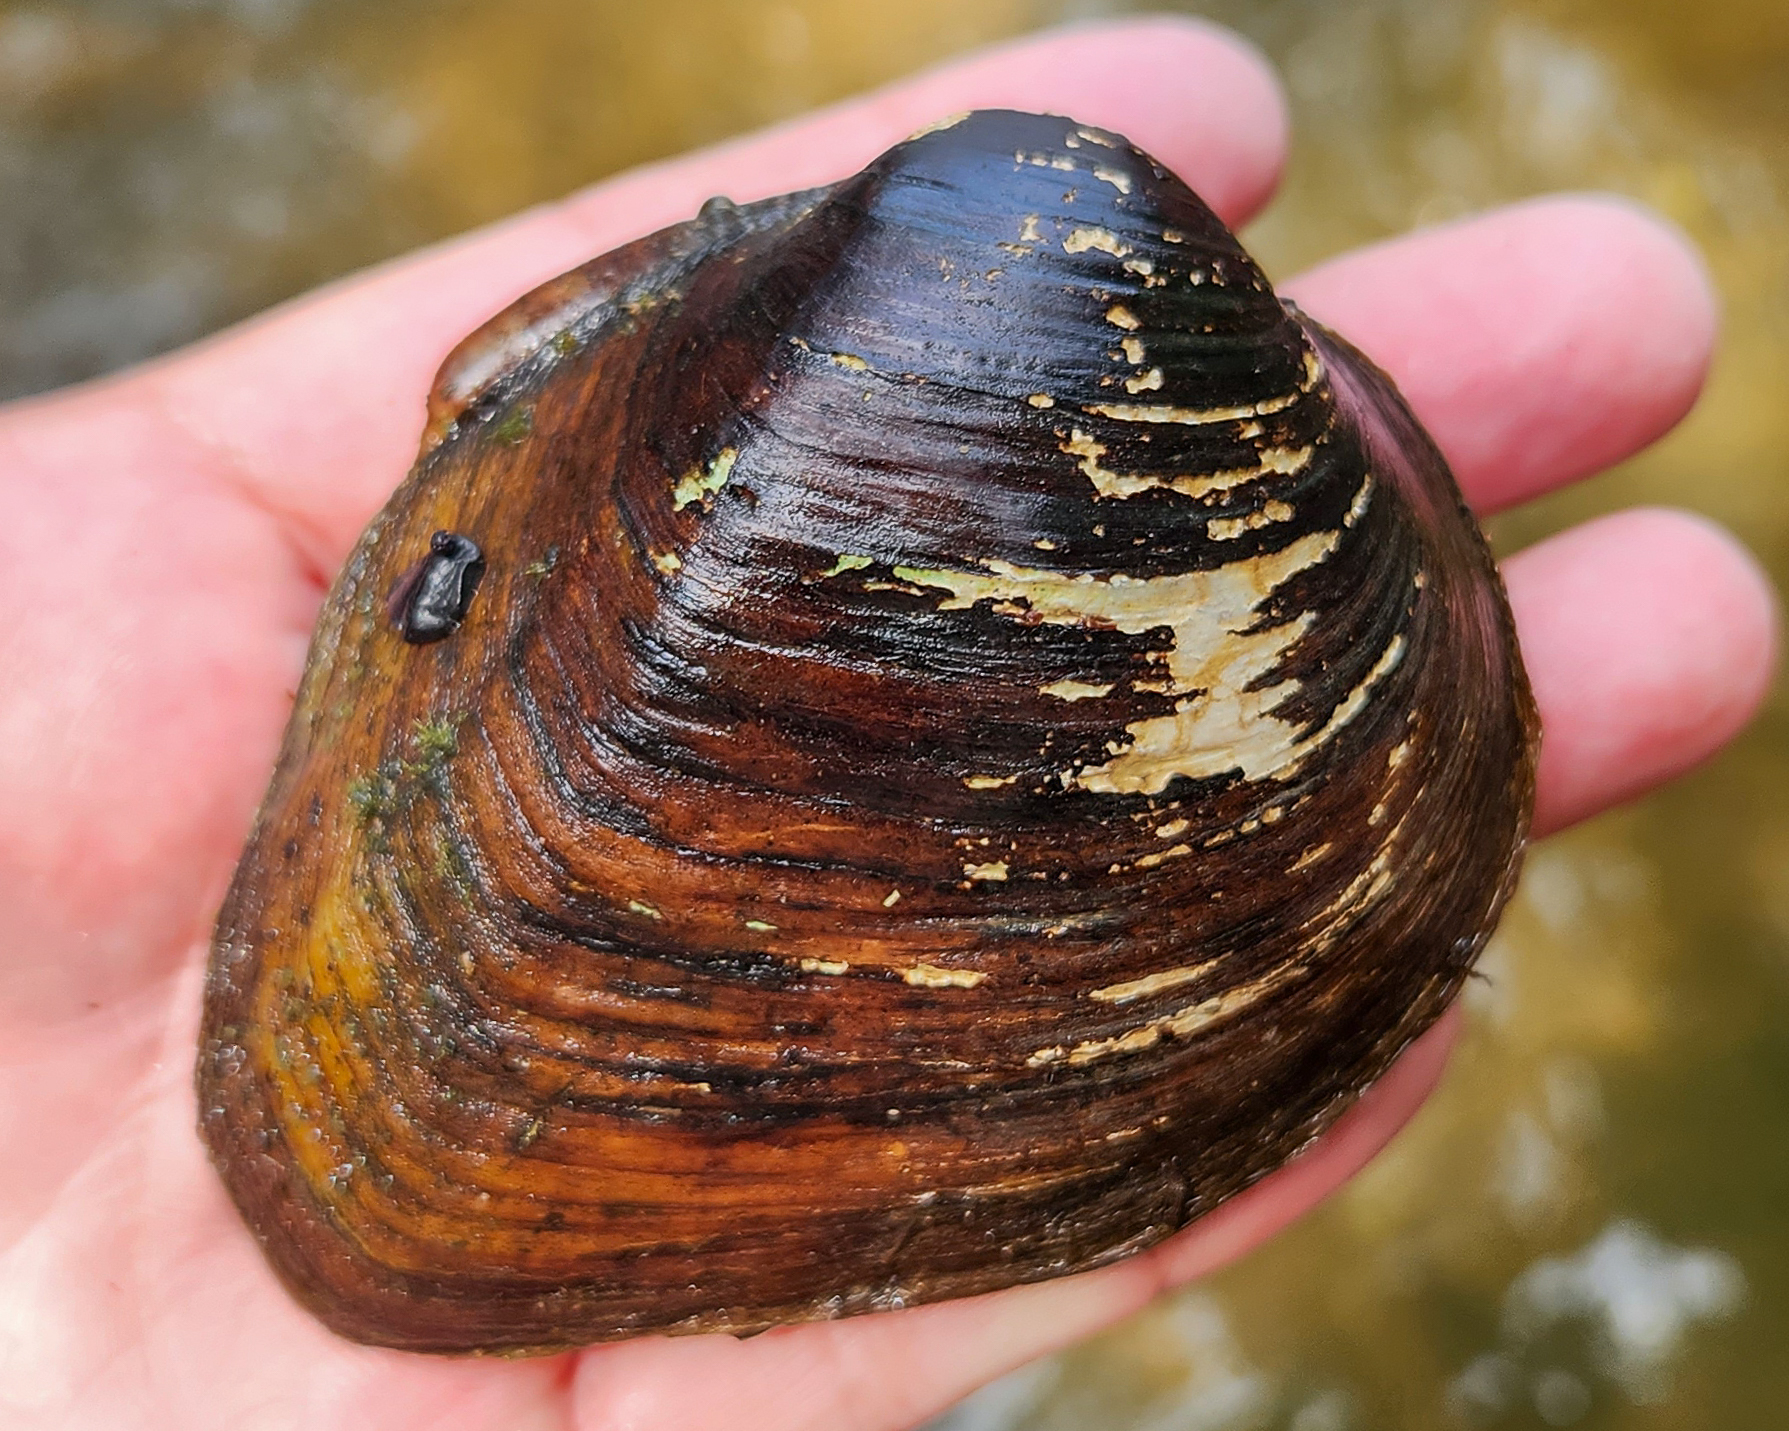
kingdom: Animalia
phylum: Mollusca
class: Bivalvia
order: Unionida
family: Unionidae
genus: Fusconaia
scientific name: Fusconaia cerina
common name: Gulf pigtoe
